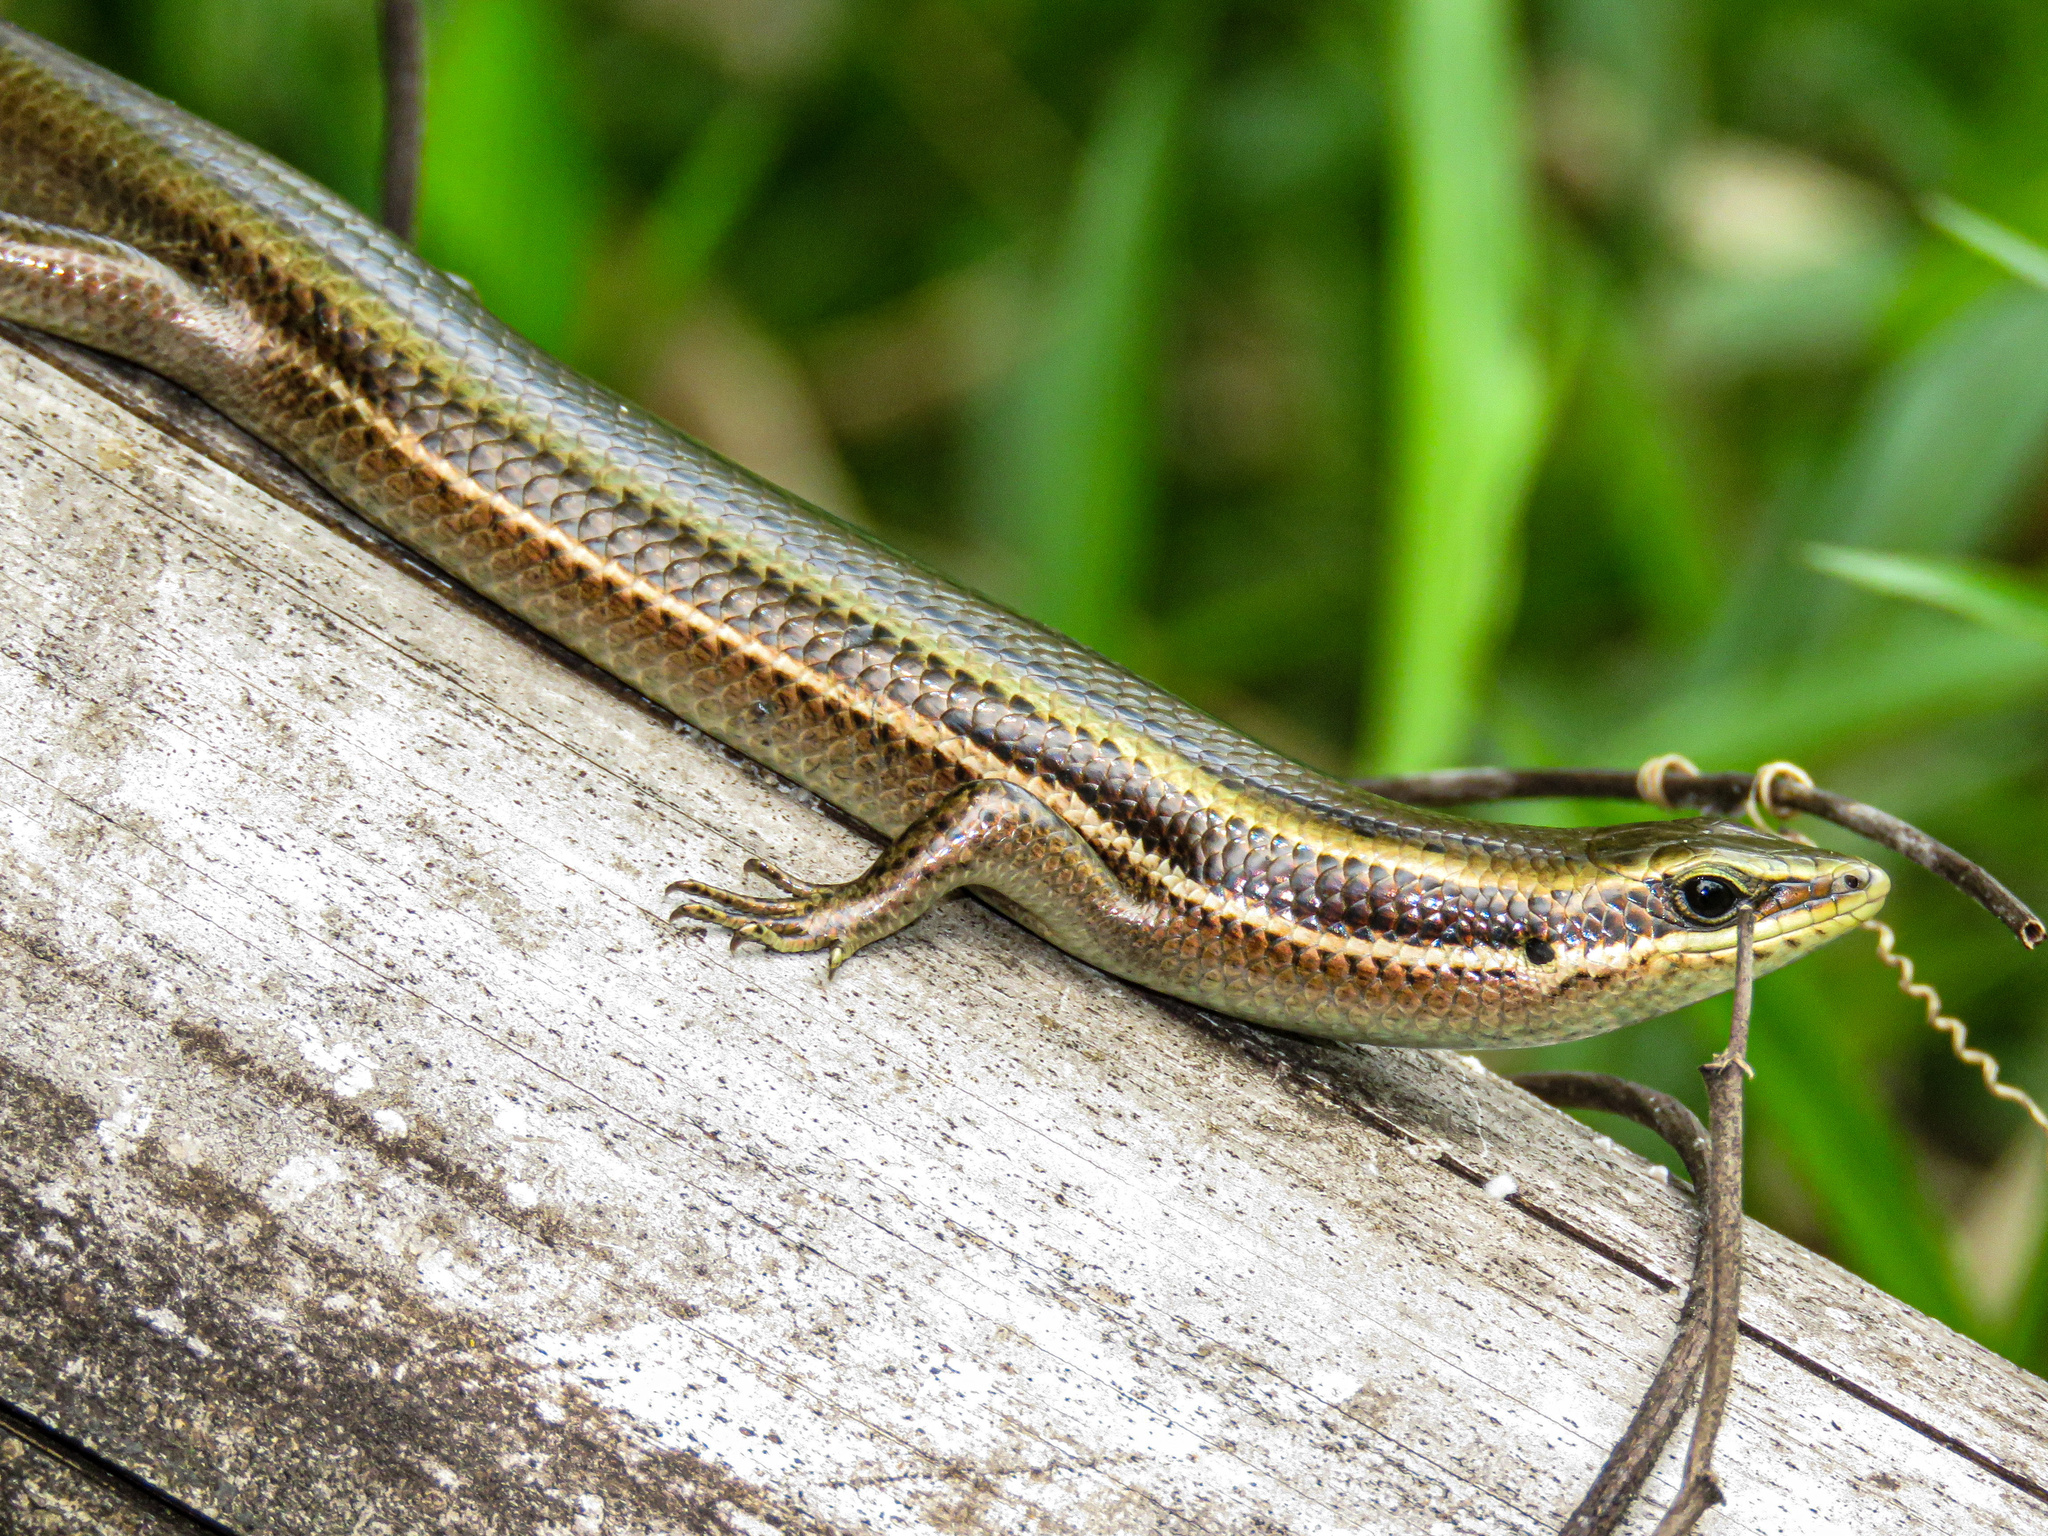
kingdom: Animalia
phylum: Chordata
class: Squamata
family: Scincidae
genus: Marisora
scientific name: Marisora alliacea
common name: Middle american four-lined skink
